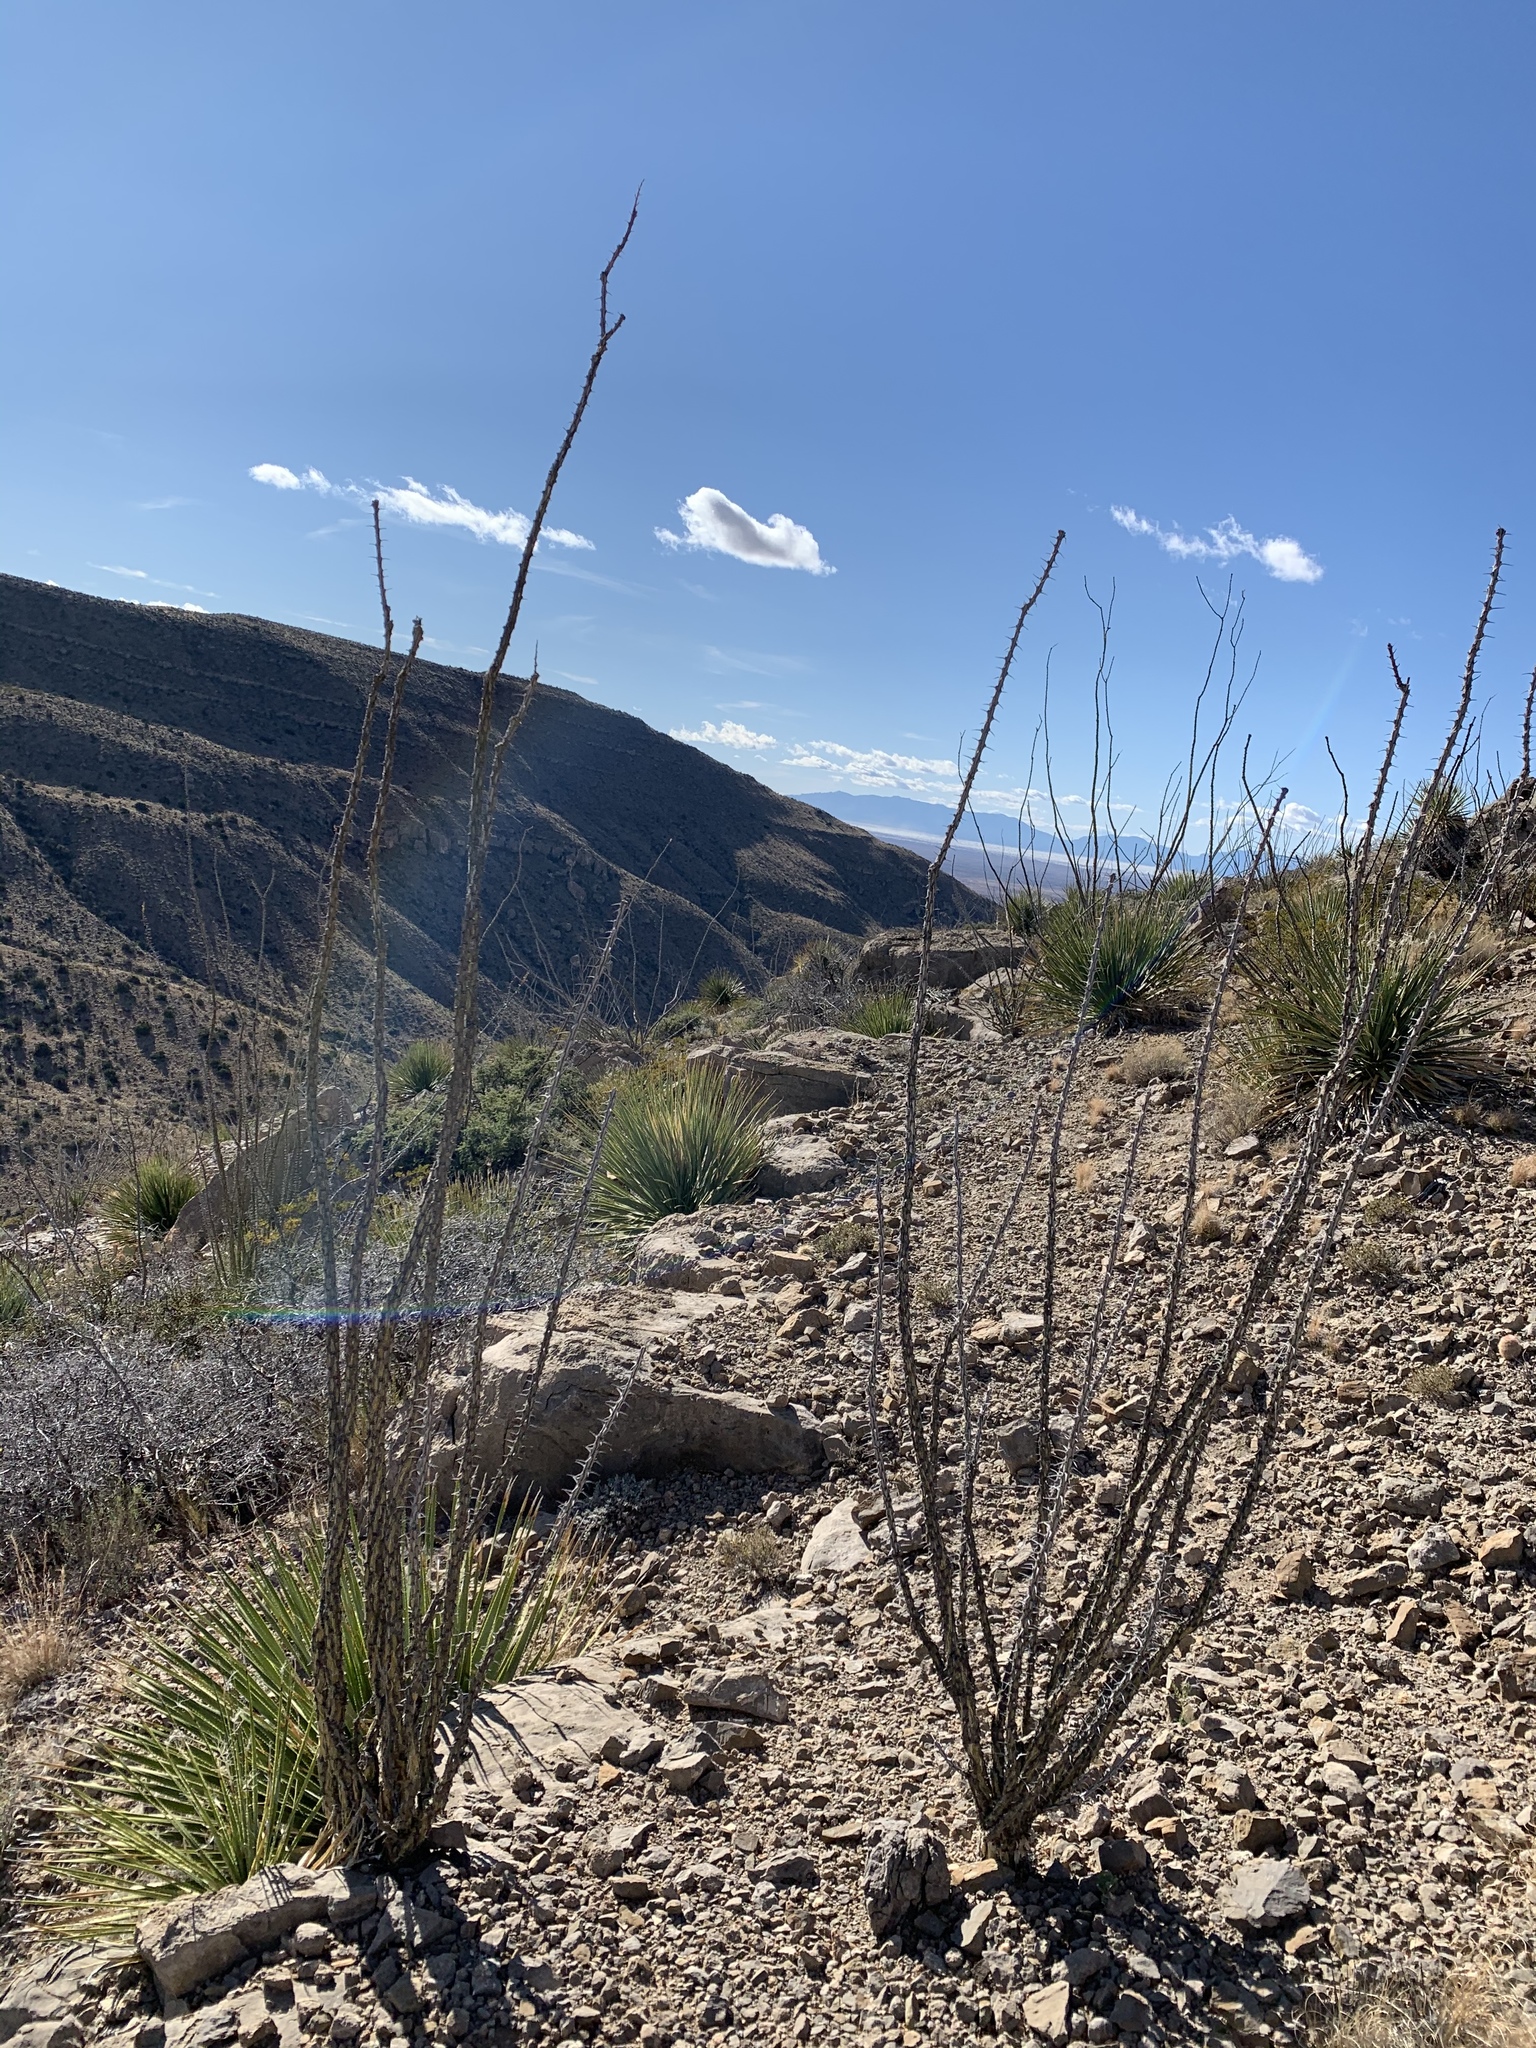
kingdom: Plantae
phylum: Tracheophyta
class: Magnoliopsida
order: Ericales
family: Fouquieriaceae
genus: Fouquieria
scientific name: Fouquieria splendens
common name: Vine-cactus
